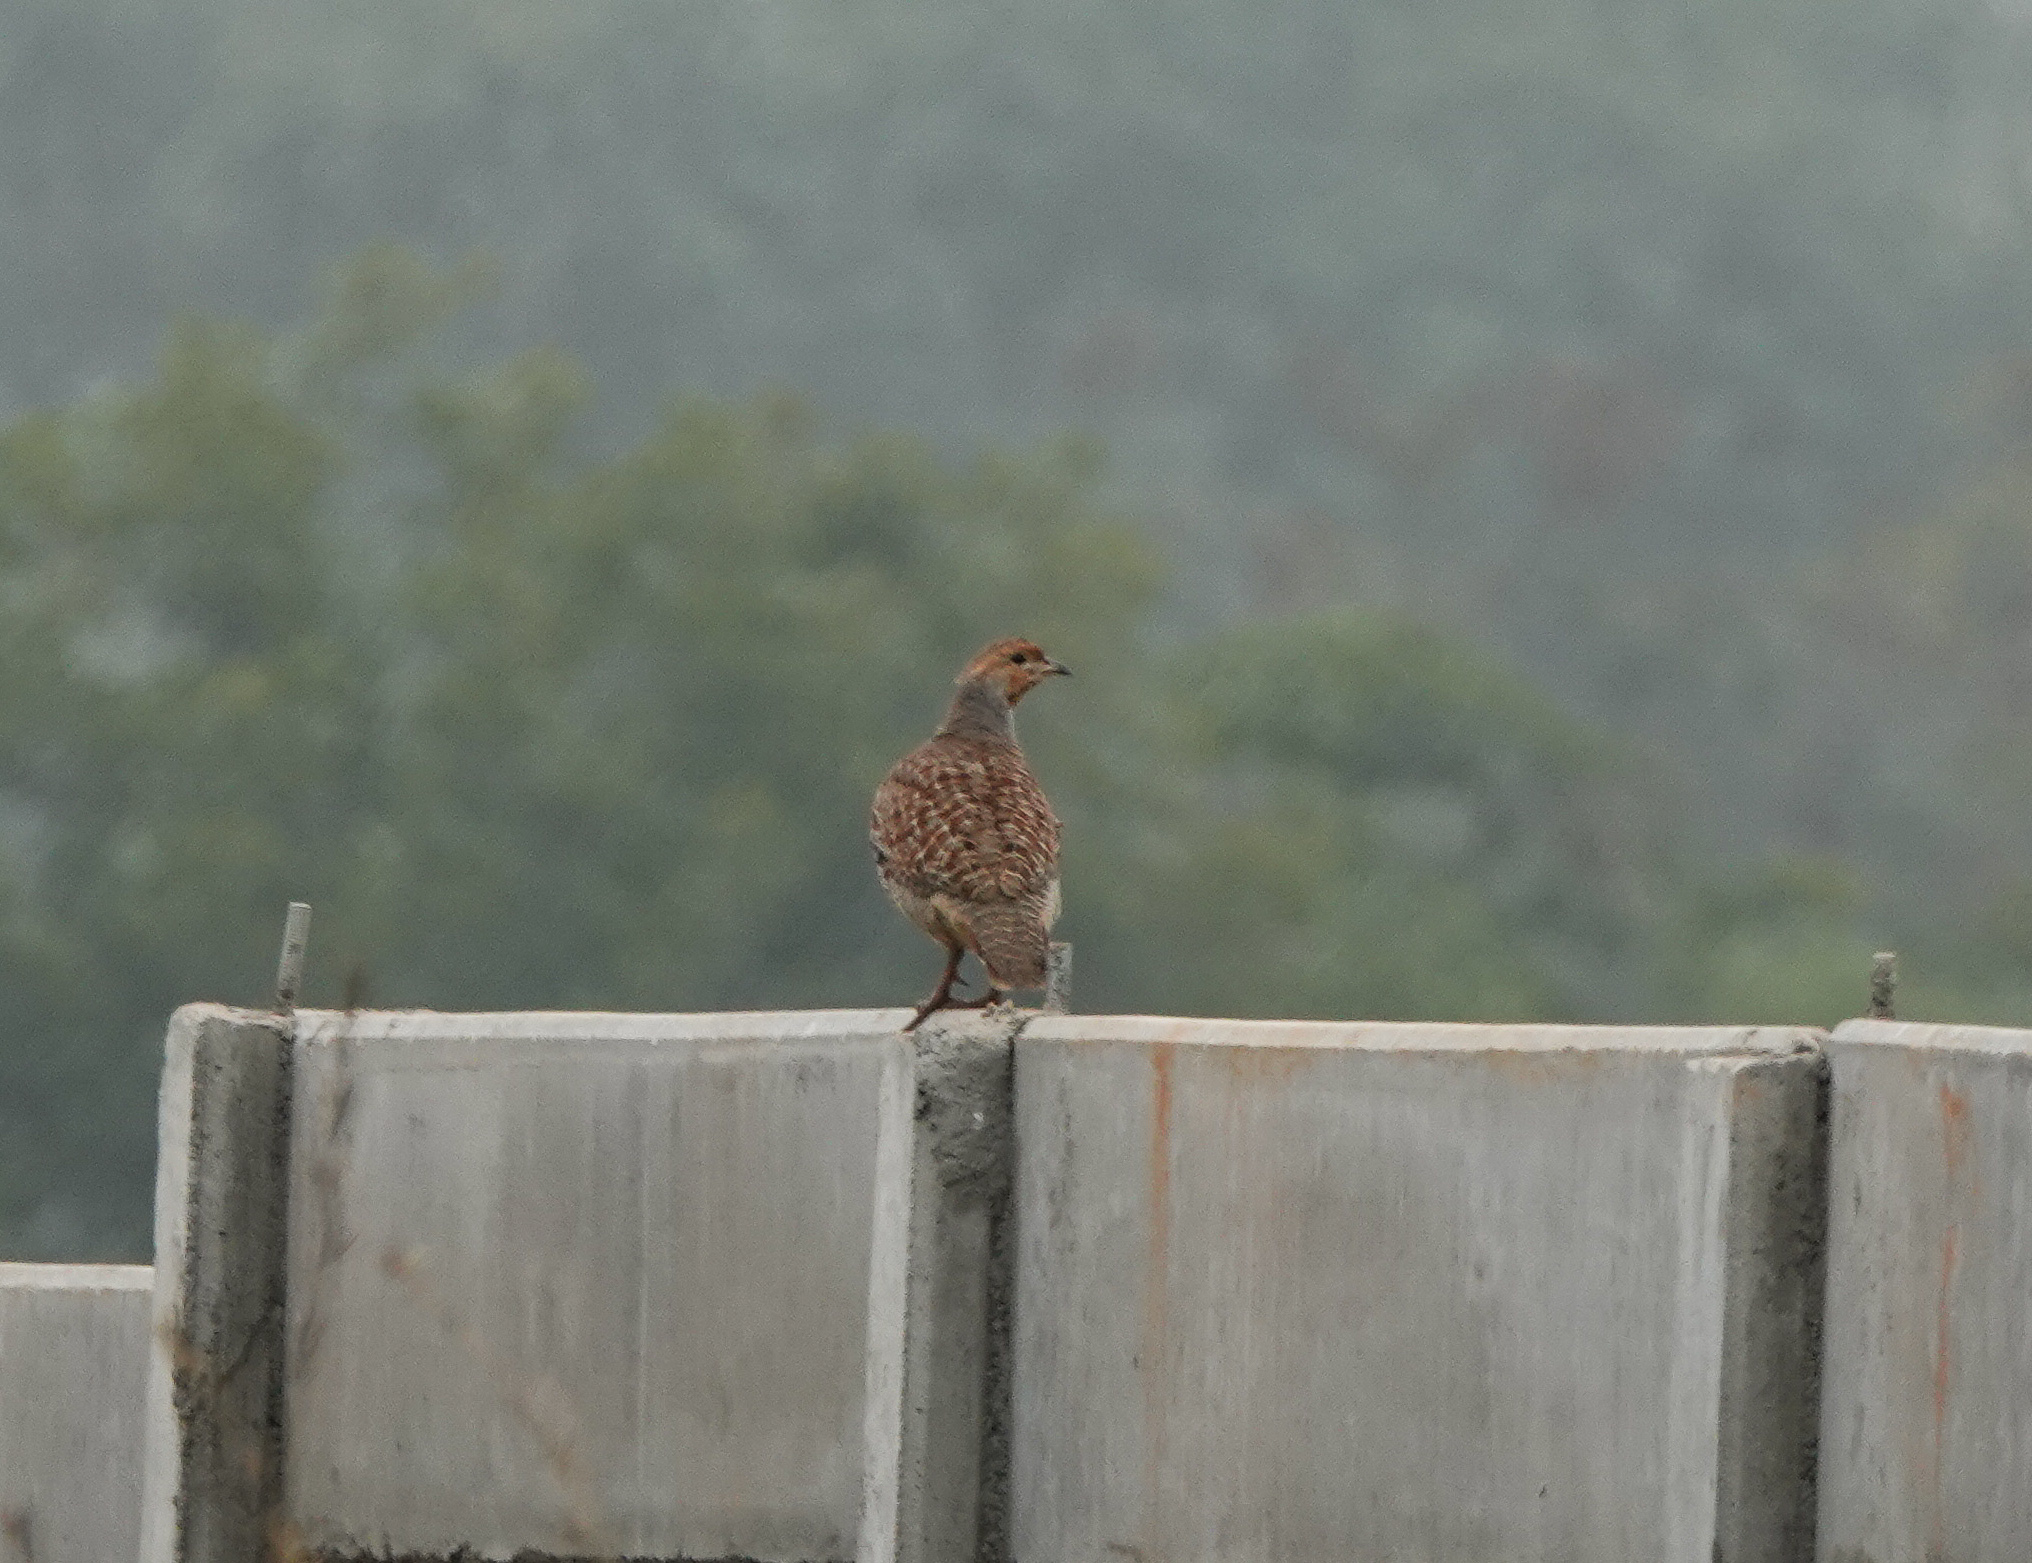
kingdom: Animalia
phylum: Chordata
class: Aves
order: Galliformes
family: Phasianidae
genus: Ortygornis
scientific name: Ortygornis pondicerianus
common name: Grey francolin
